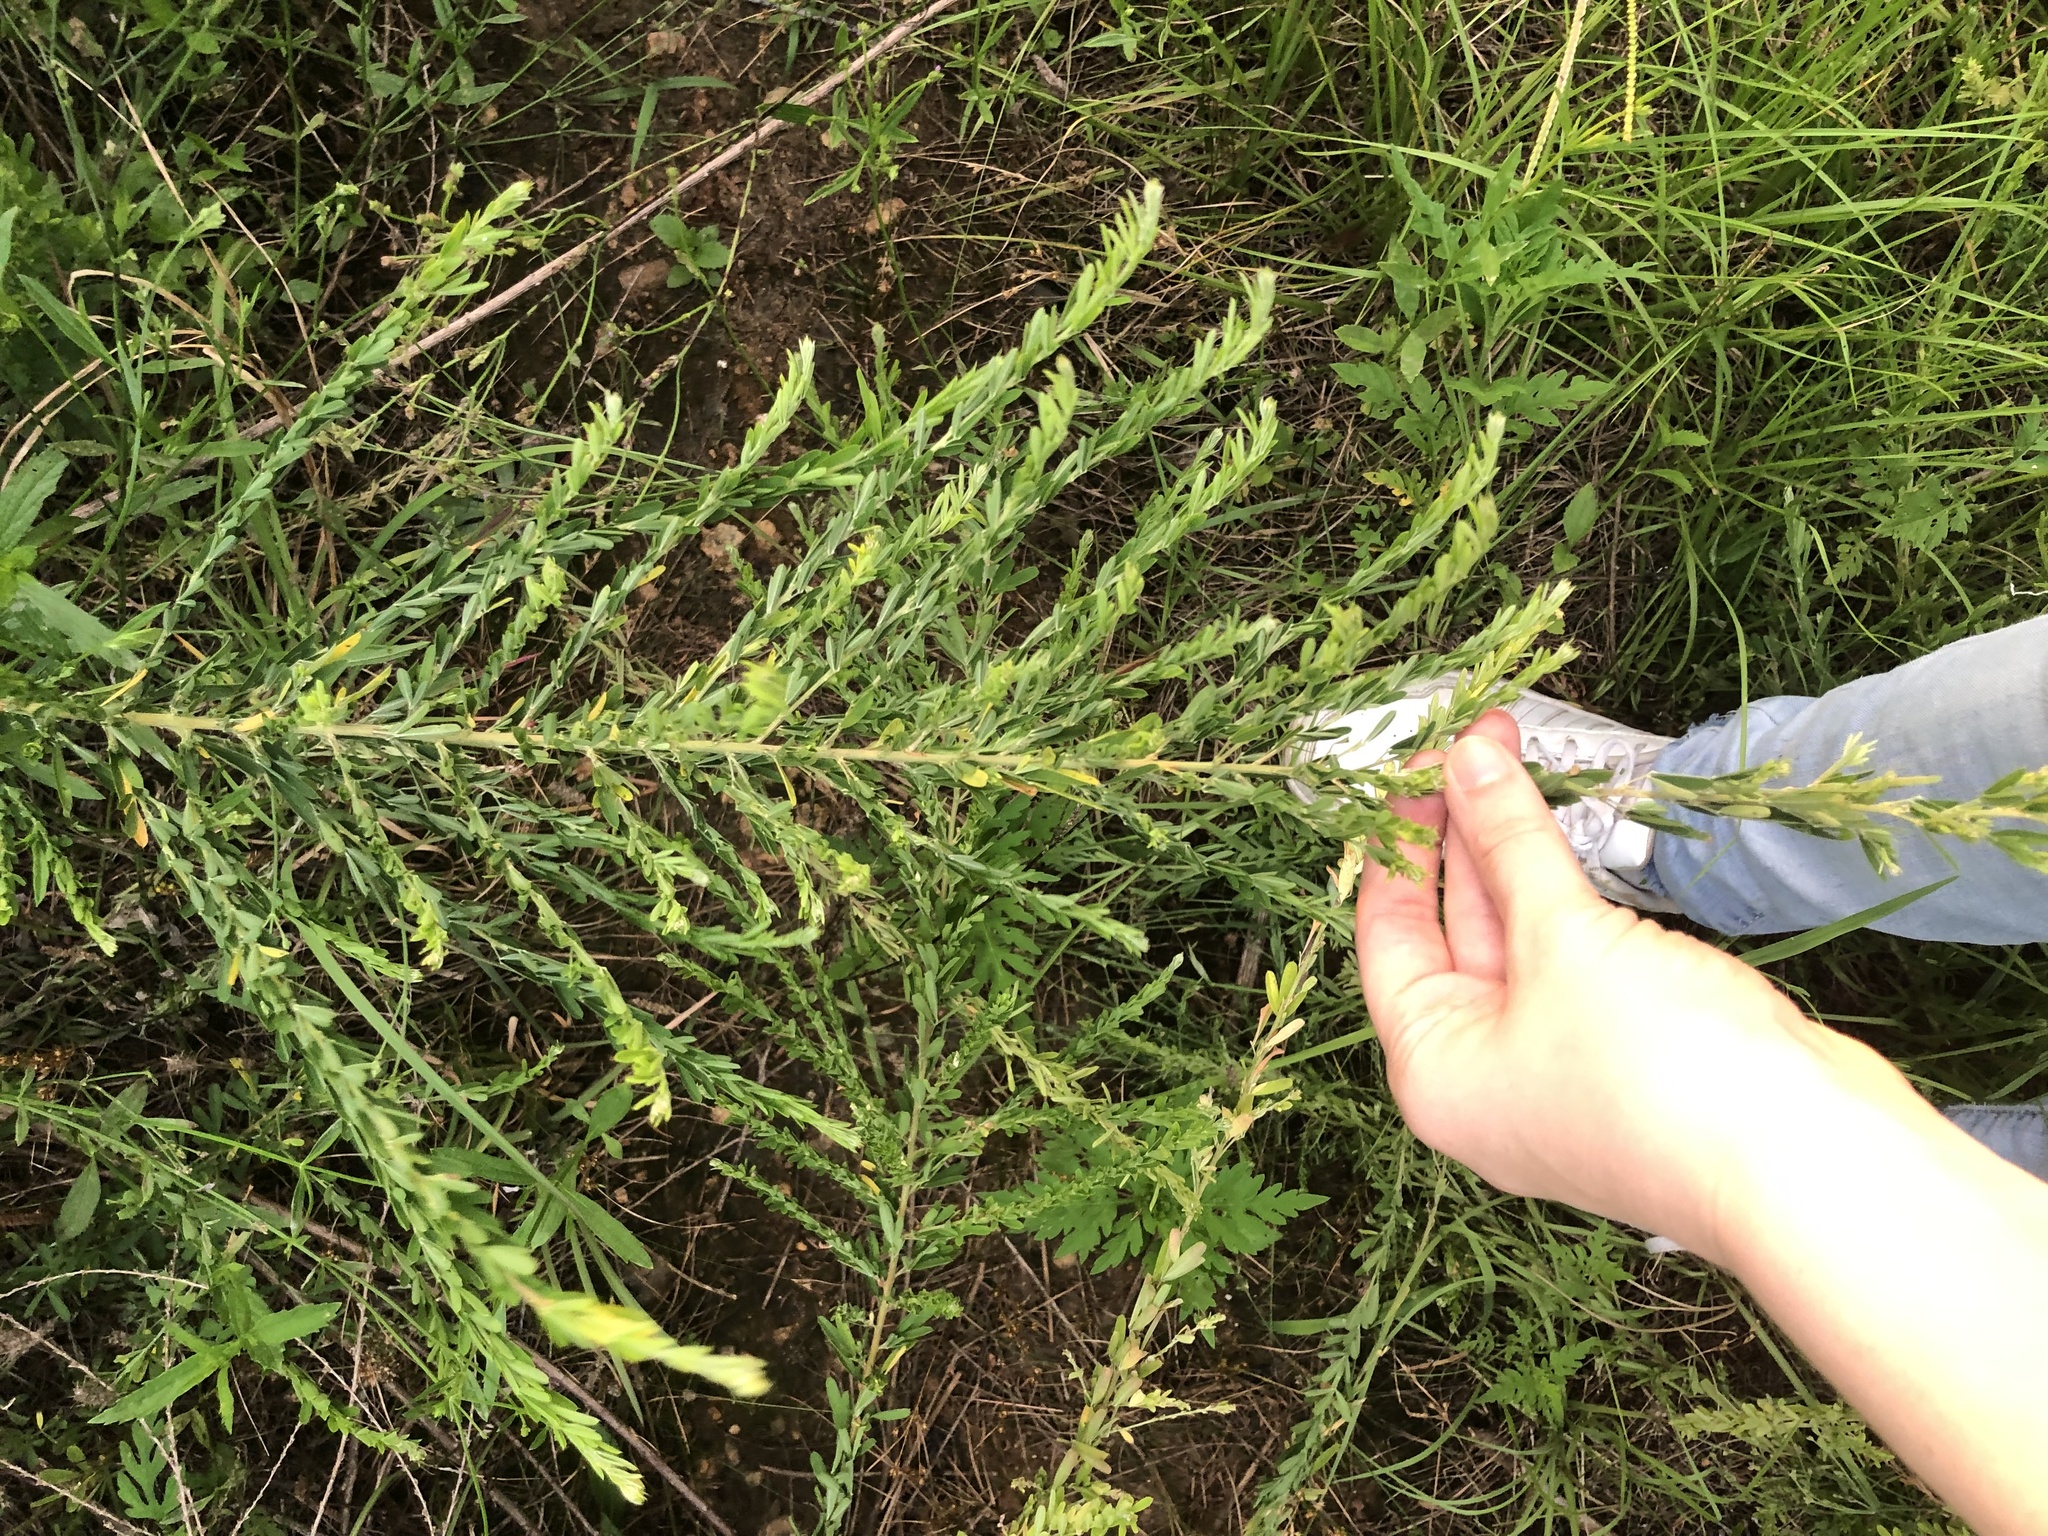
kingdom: Plantae
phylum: Tracheophyta
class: Magnoliopsida
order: Fabales
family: Fabaceae
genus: Lespedeza
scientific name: Lespedeza cuneata
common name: Chinese bush-clover
